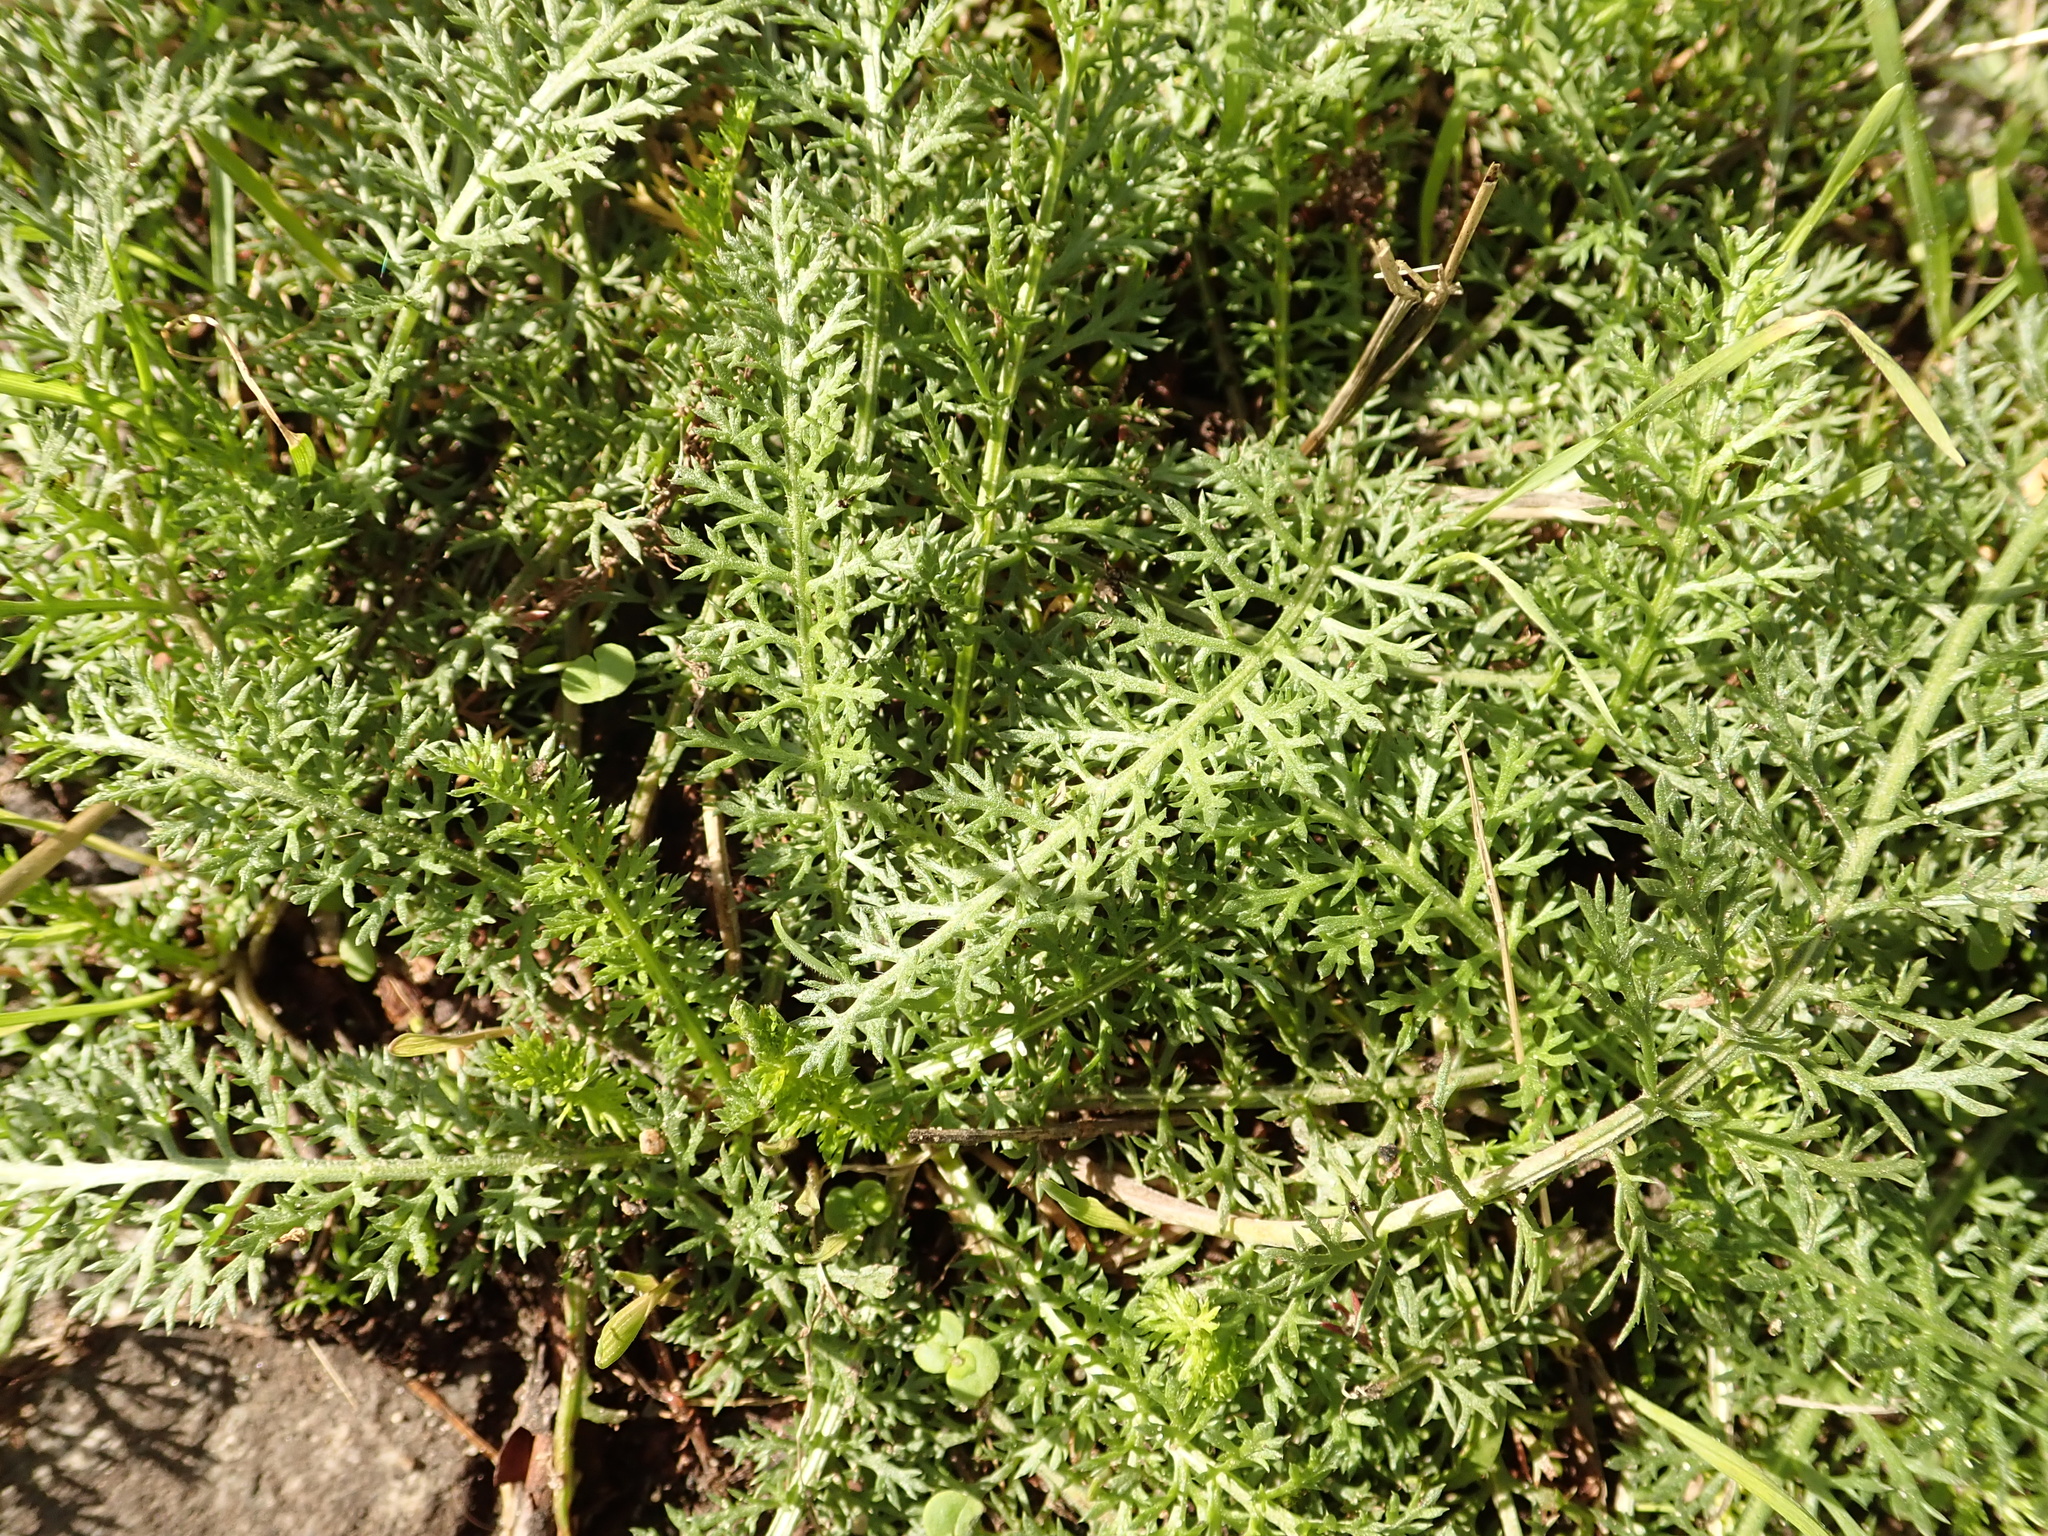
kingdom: Plantae
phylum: Tracheophyta
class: Magnoliopsida
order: Asterales
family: Asteraceae
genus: Achillea
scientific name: Achillea millefolium
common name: Yarrow
